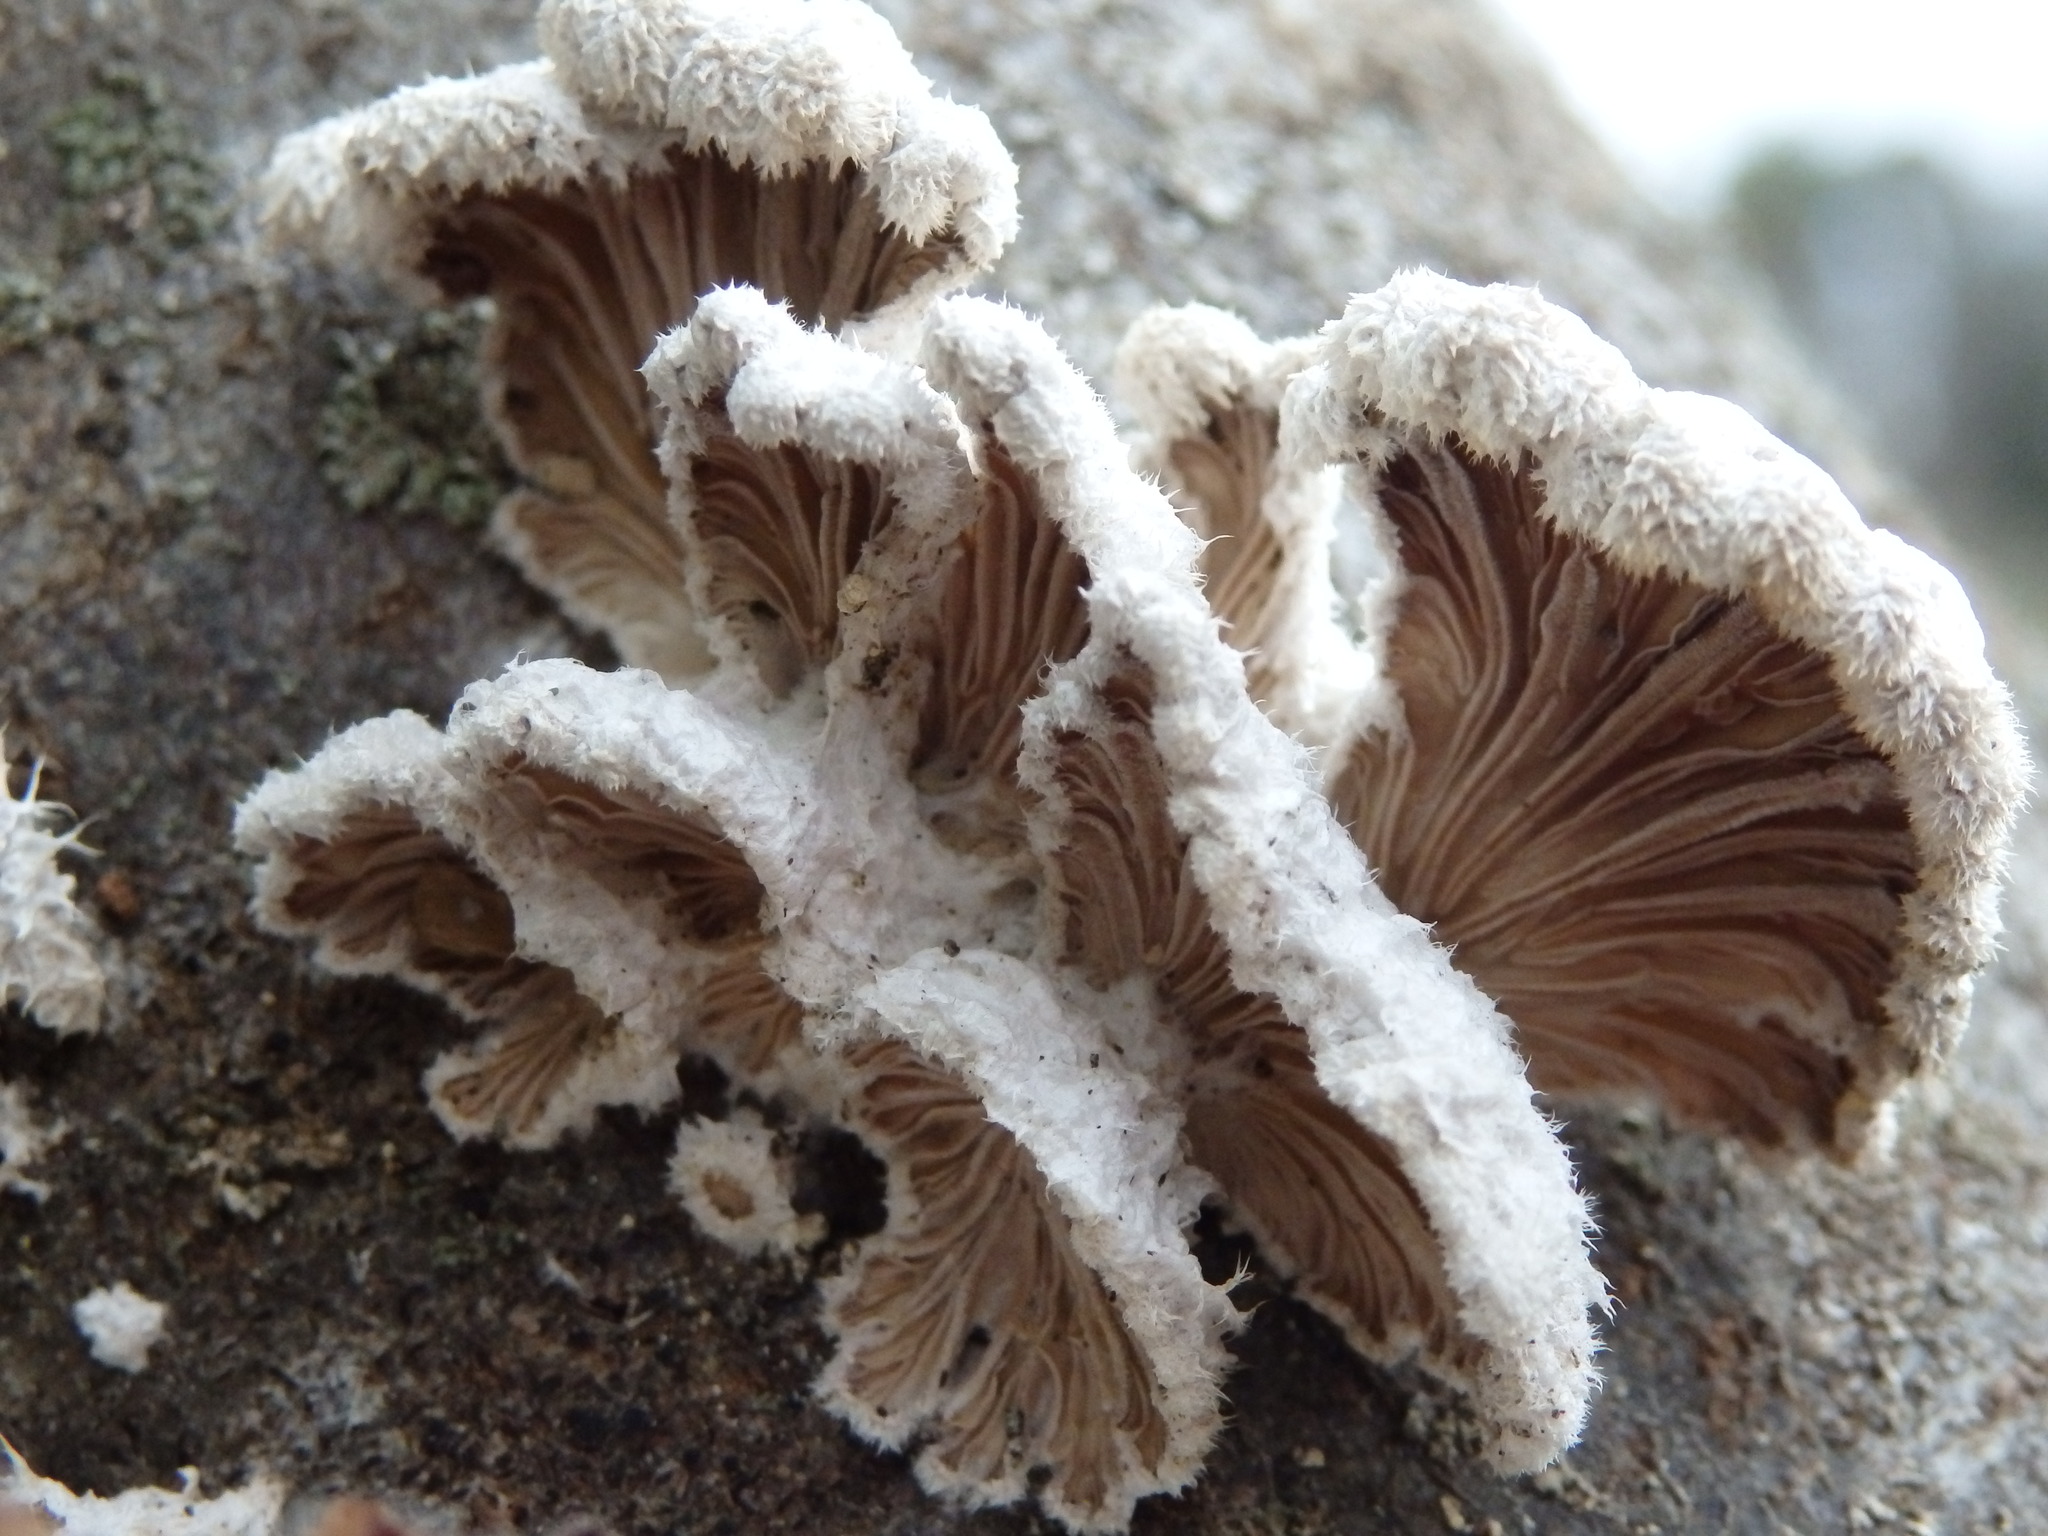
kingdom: Fungi
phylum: Basidiomycota
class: Agaricomycetes
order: Agaricales
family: Schizophyllaceae
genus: Schizophyllum
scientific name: Schizophyllum commune
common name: Common porecrust
